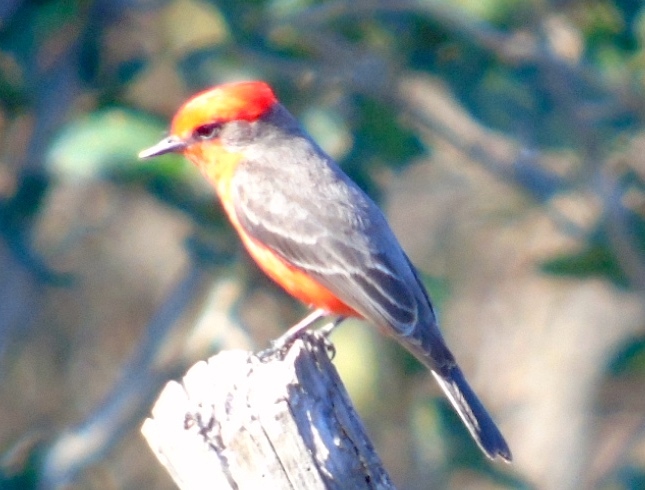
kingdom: Animalia
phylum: Chordata
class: Aves
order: Passeriformes
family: Tyrannidae
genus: Pyrocephalus
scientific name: Pyrocephalus rubinus
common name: Vermilion flycatcher
